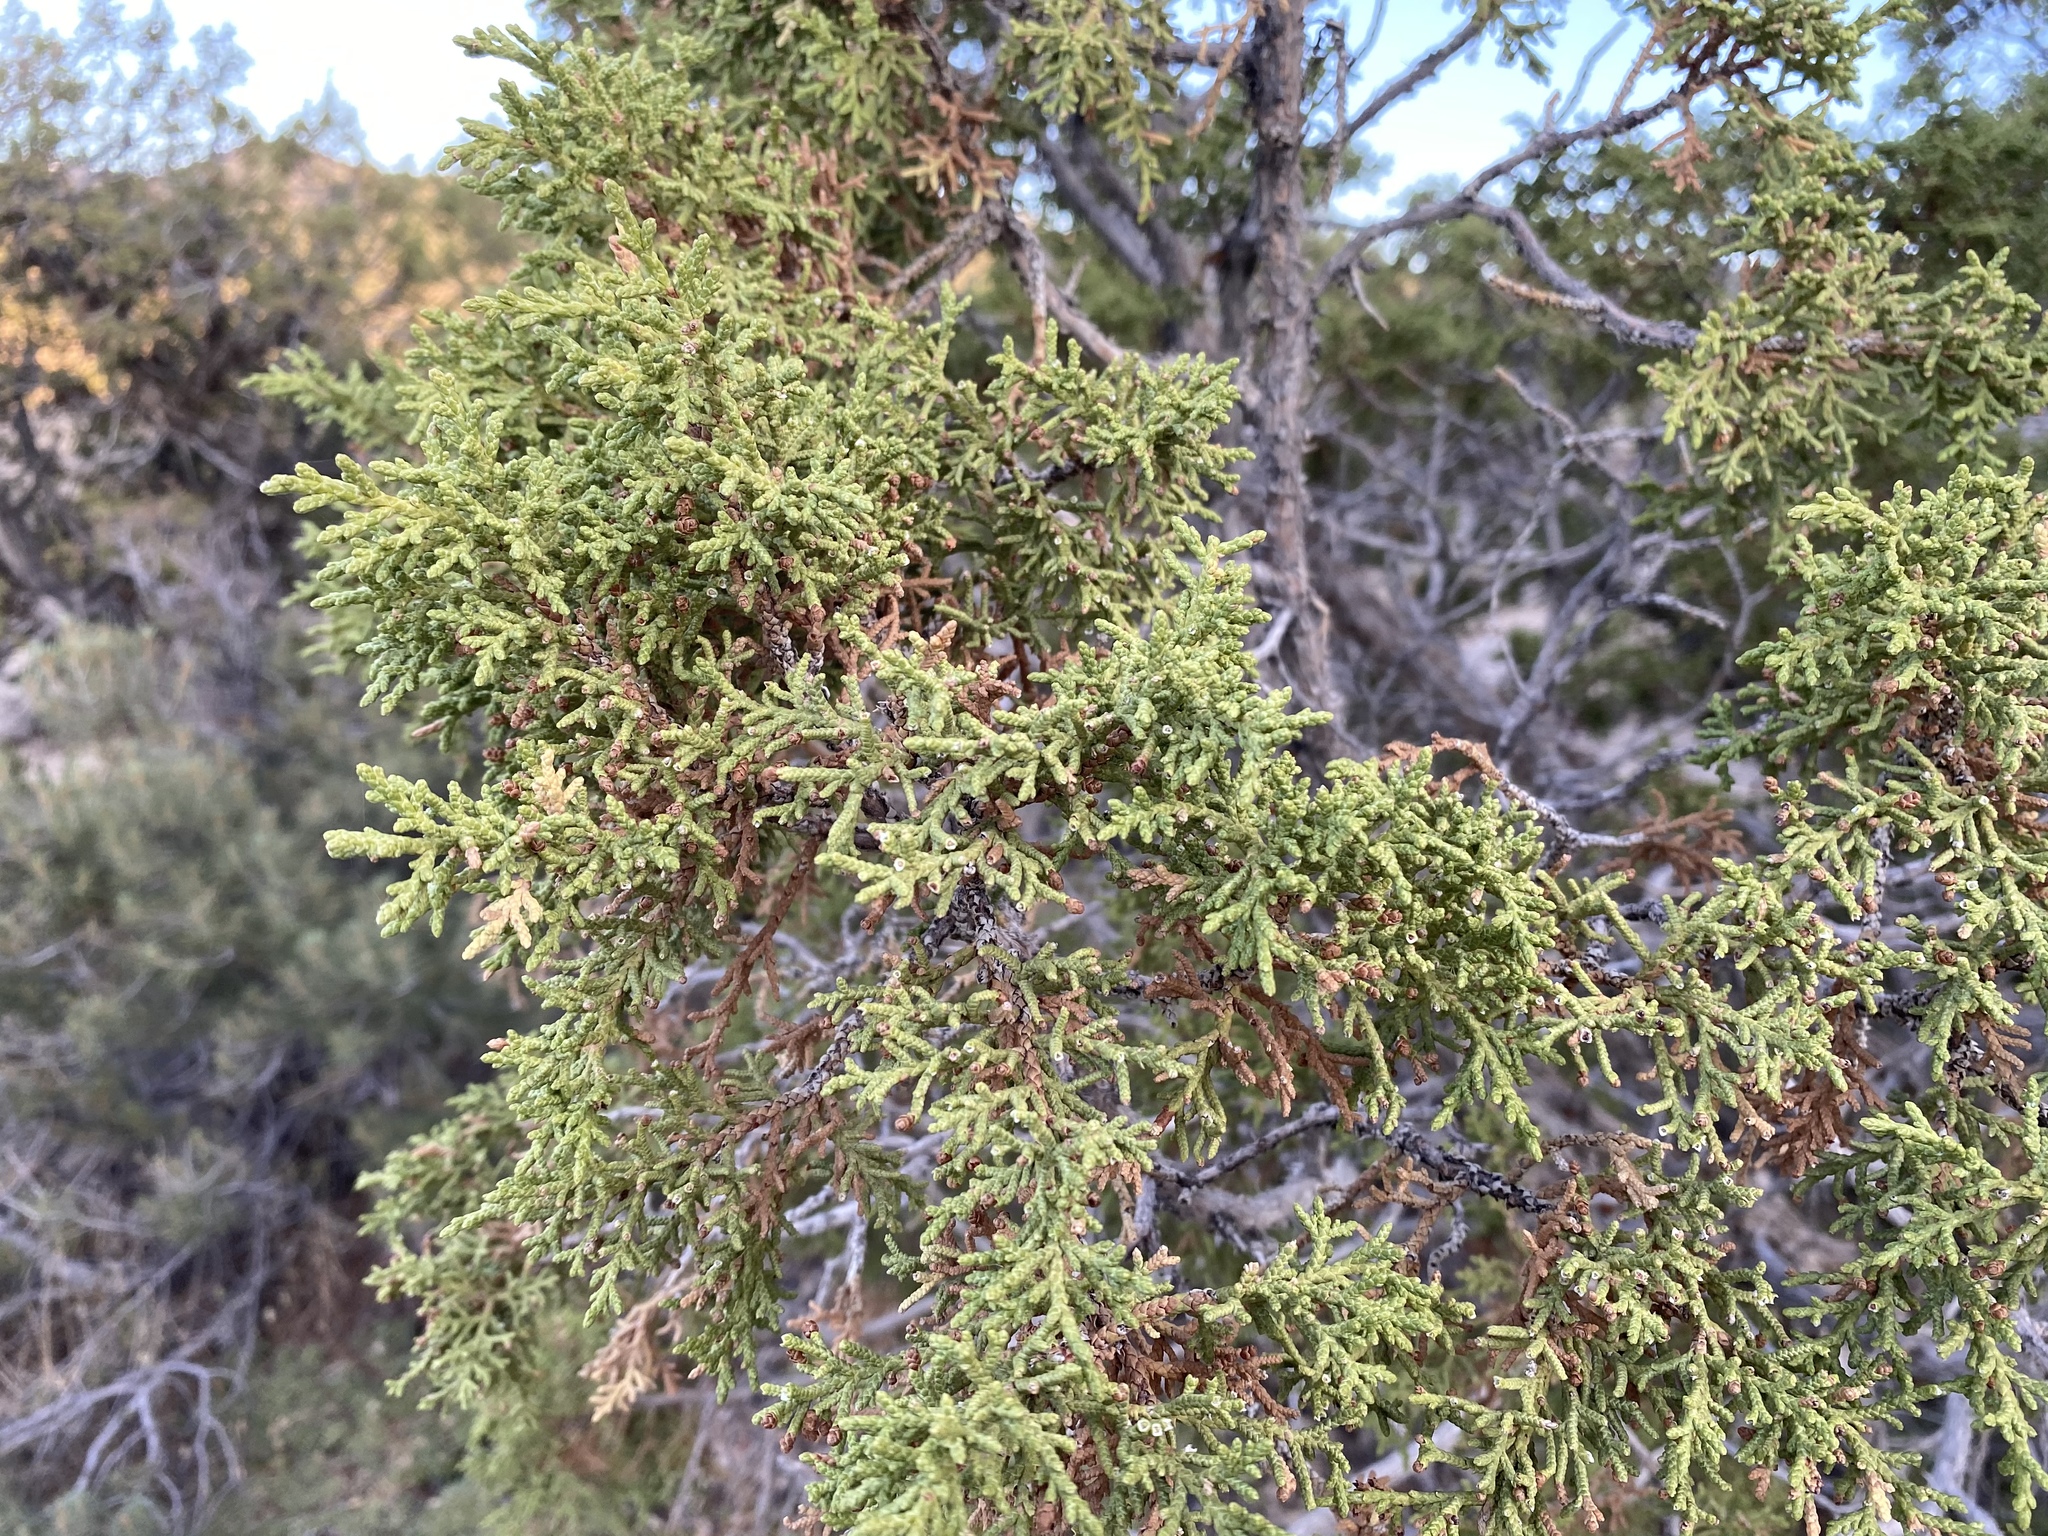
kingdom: Plantae
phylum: Tracheophyta
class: Pinopsida
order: Pinales
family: Cupressaceae
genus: Juniperus
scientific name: Juniperus osteosperma
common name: Utah juniper
